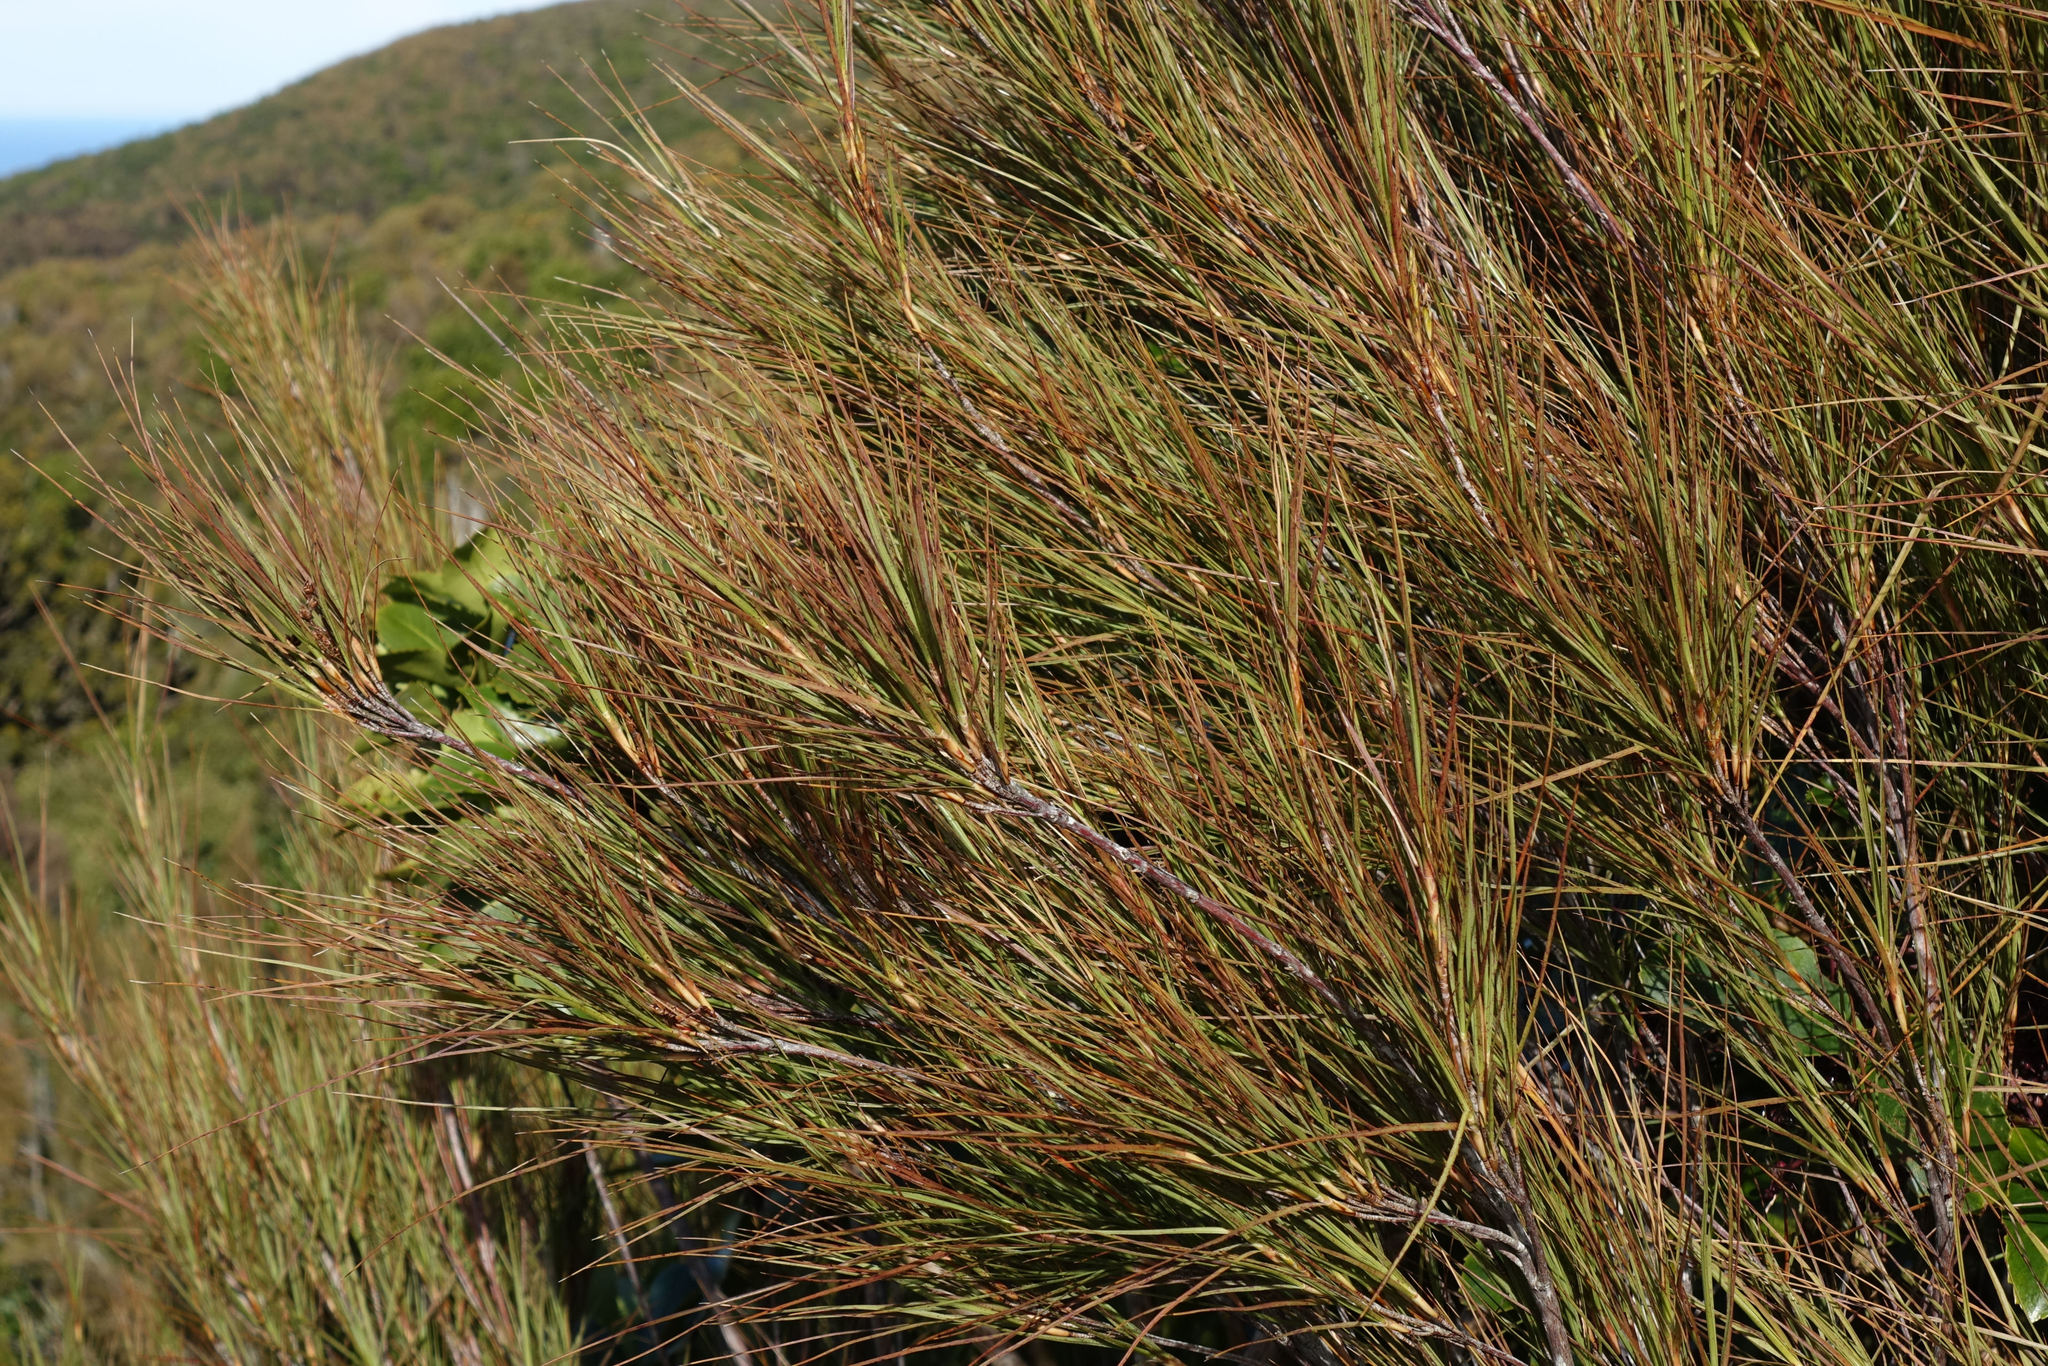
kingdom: Plantae
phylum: Tracheophyta
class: Magnoliopsida
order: Ericales
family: Ericaceae
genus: Dracophyllum
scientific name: Dracophyllum longifolium
